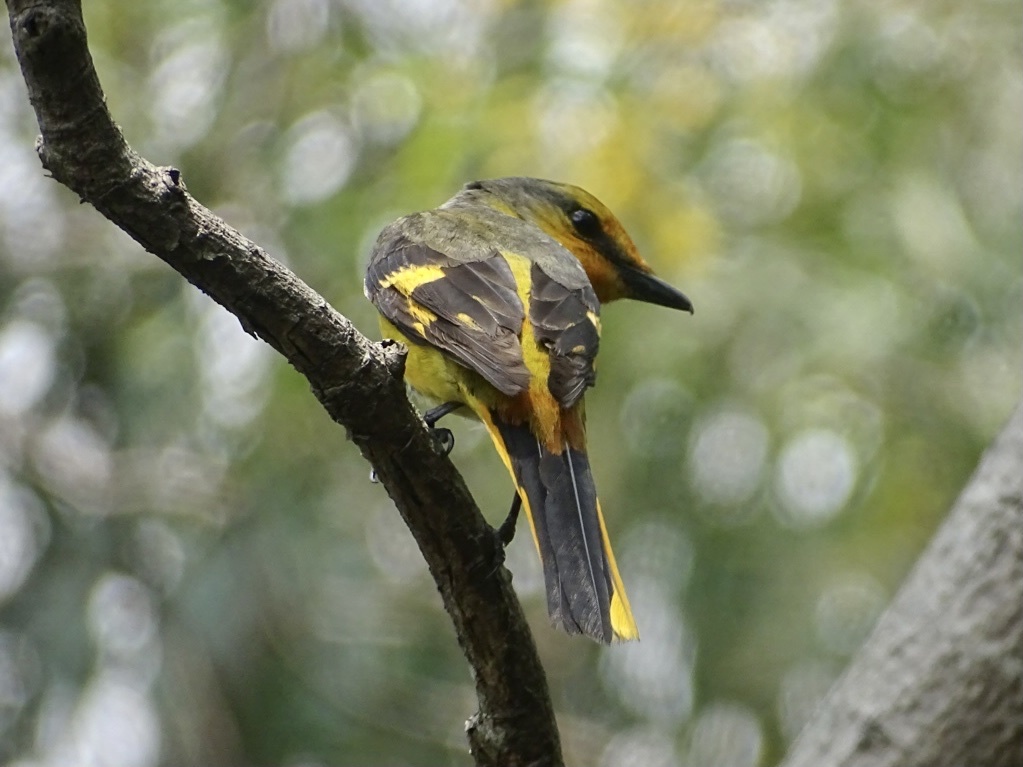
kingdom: Animalia
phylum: Chordata
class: Aves
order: Passeriformes
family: Campephagidae
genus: Pericrocotus
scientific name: Pericrocotus speciosus
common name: Scarlet minivet
